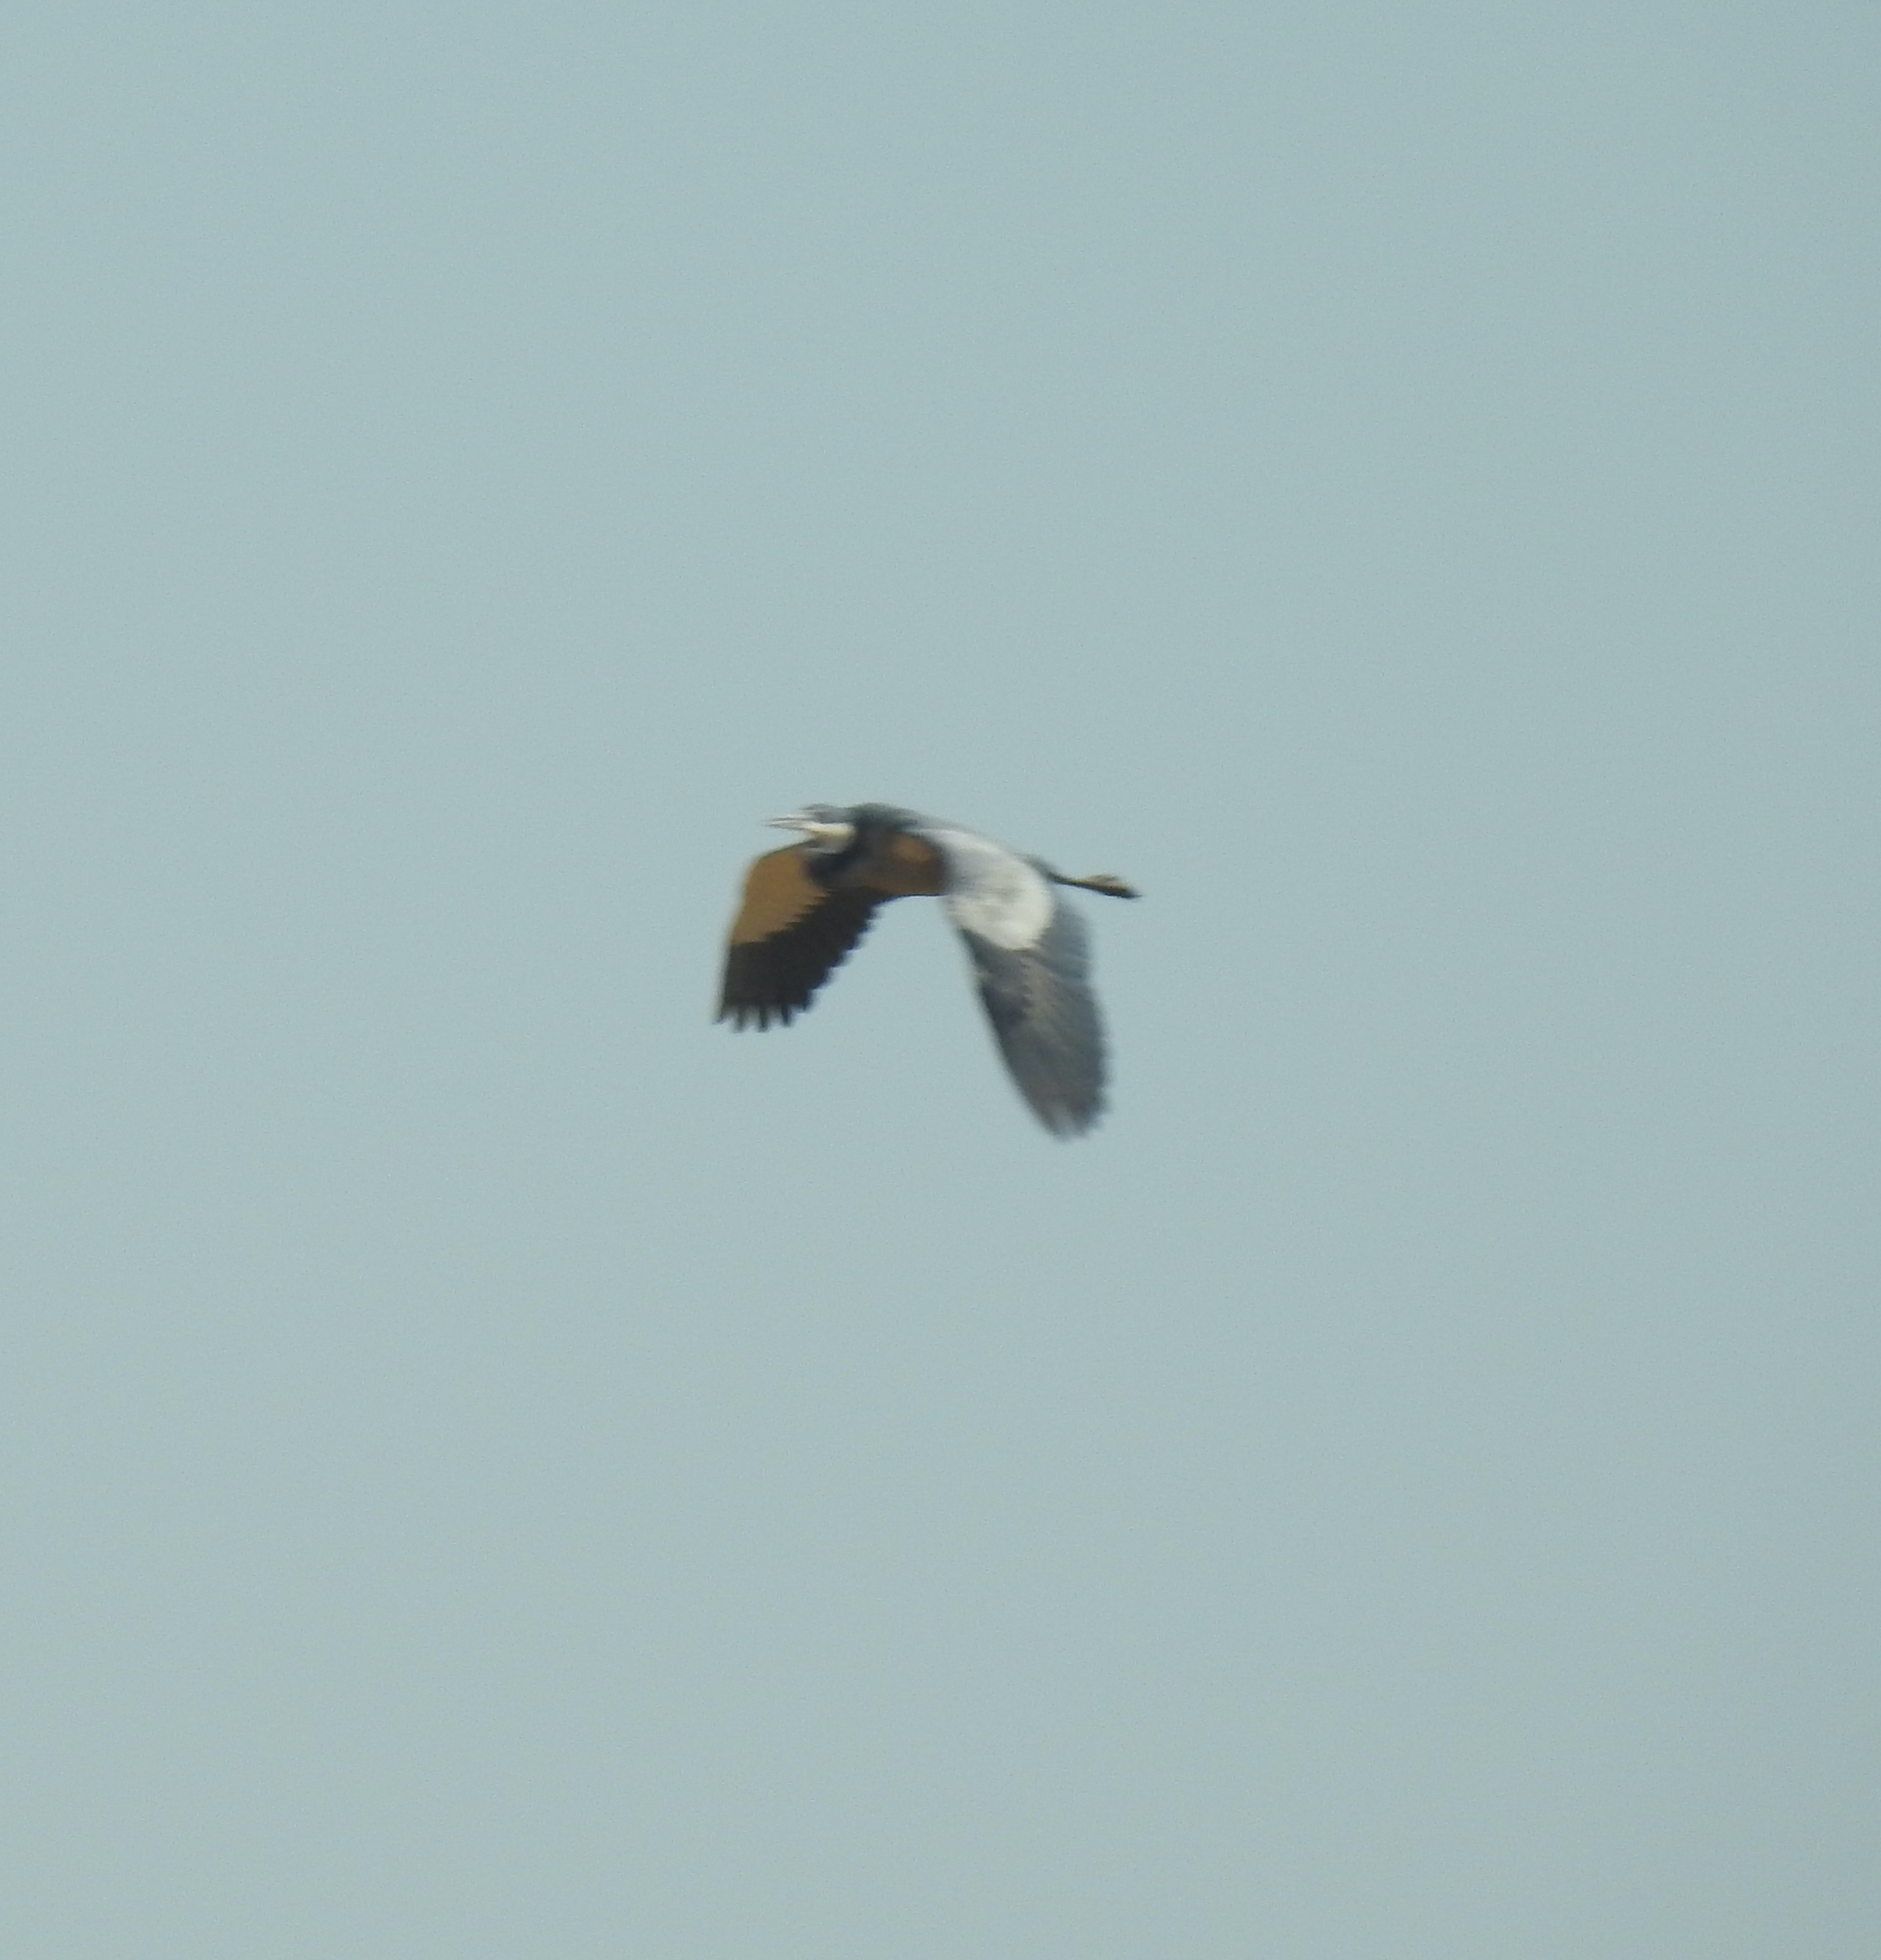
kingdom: Animalia
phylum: Chordata
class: Aves
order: Pelecaniformes
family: Ardeidae
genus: Ardea
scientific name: Ardea melanocephala
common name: Black-headed heron
